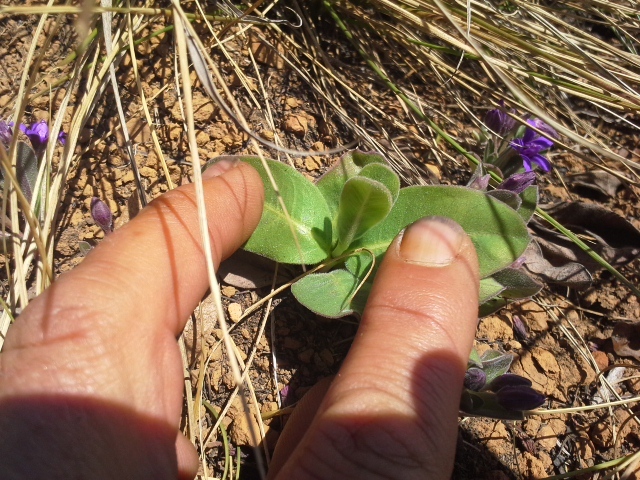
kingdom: Plantae
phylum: Tracheophyta
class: Magnoliopsida
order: Gentianales
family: Apocynaceae
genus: Raphionacme
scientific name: Raphionacme hirsuta
